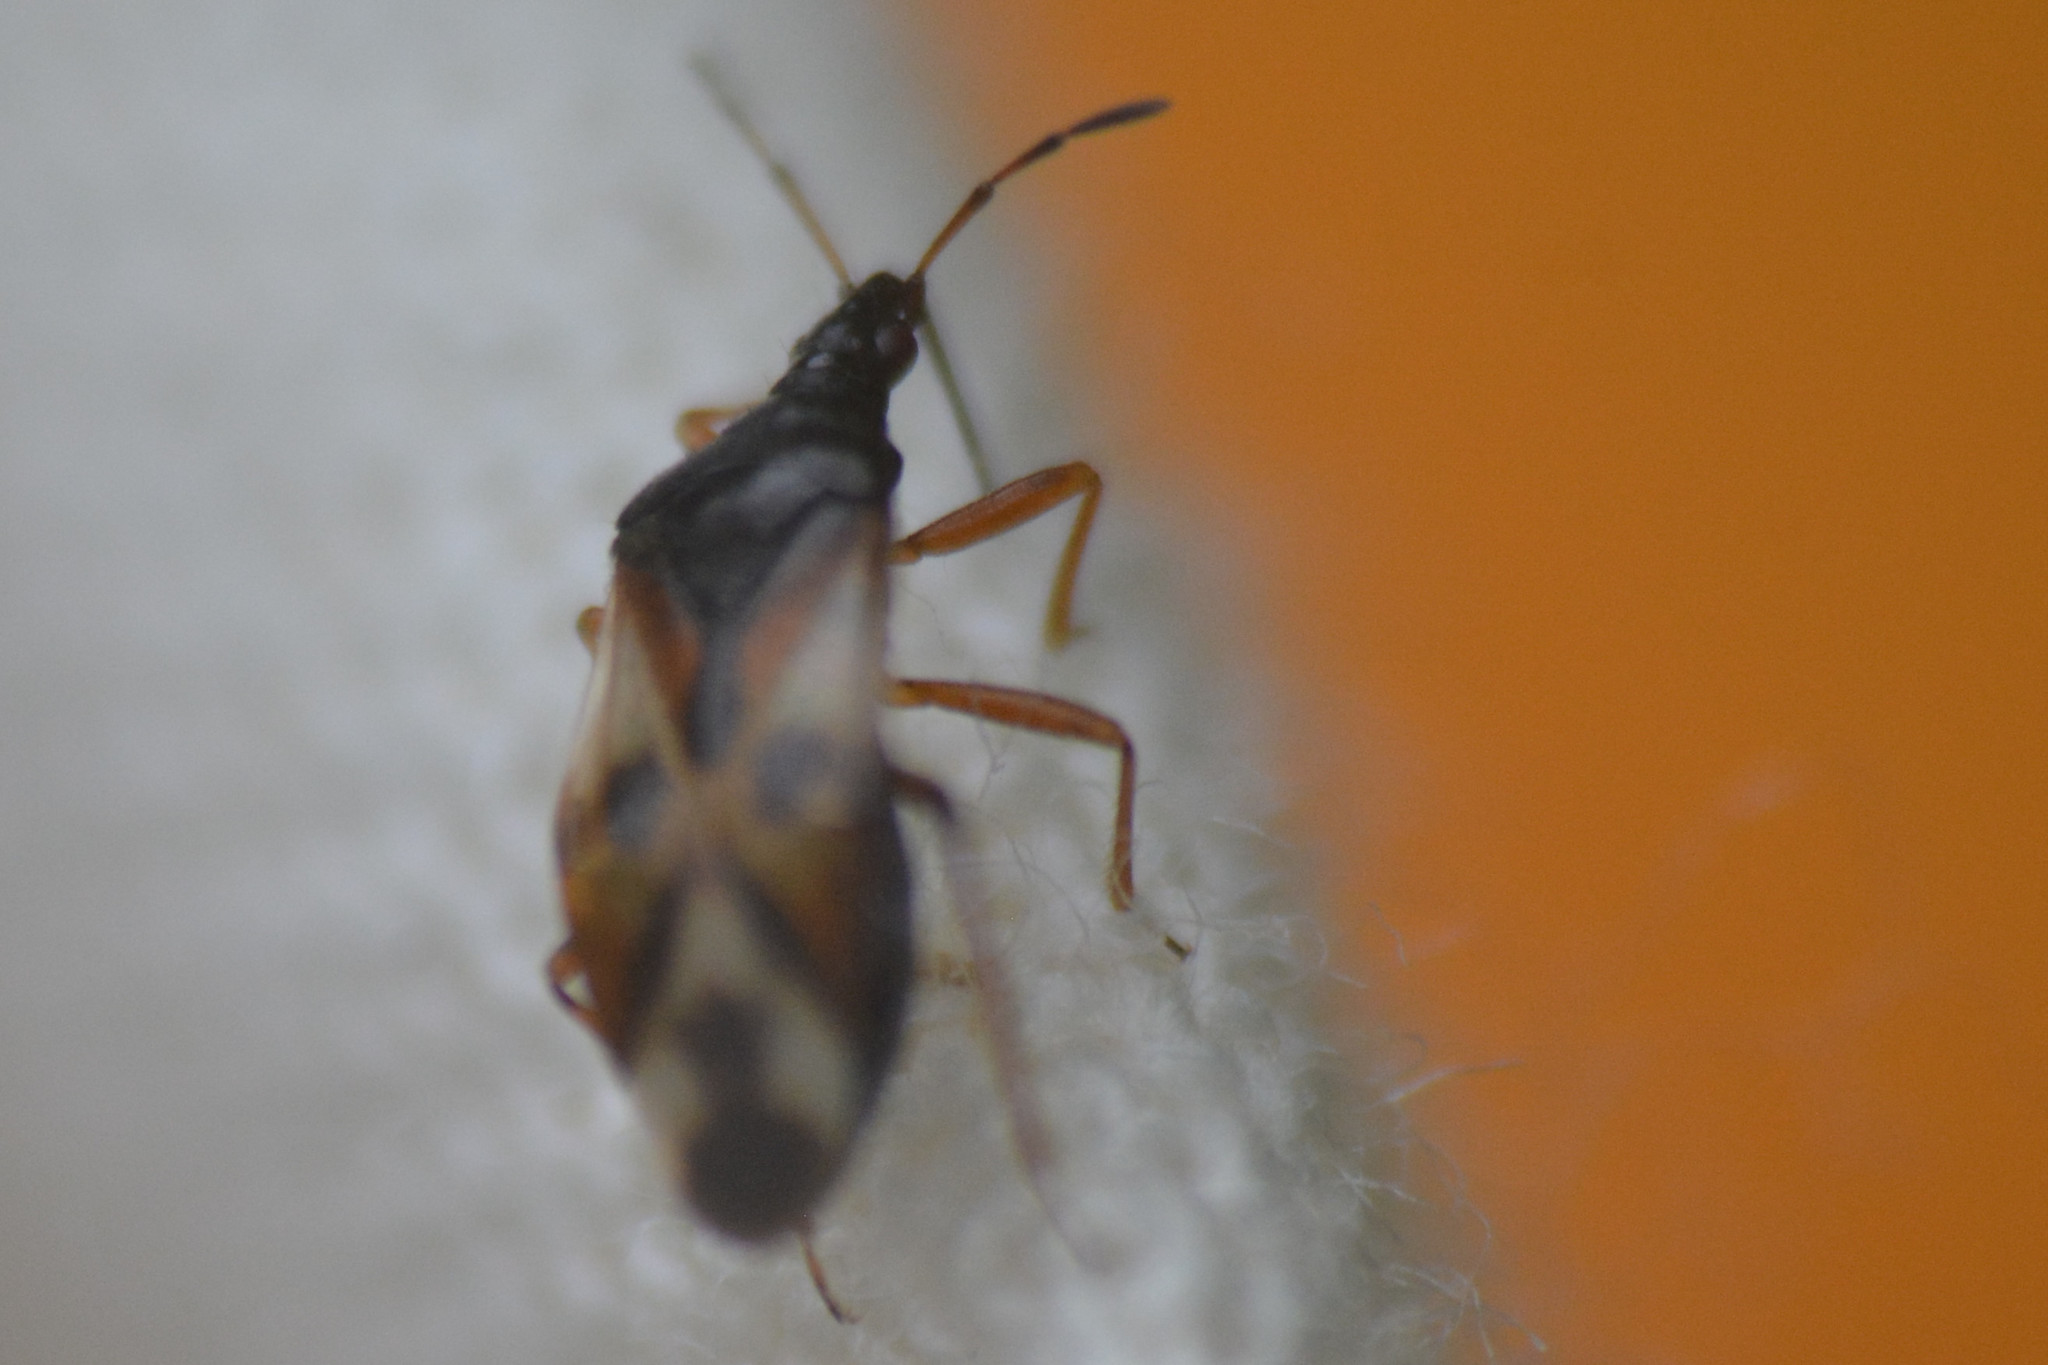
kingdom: Animalia
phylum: Arthropoda
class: Insecta
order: Hemiptera
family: Anthocoridae
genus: Anthocoris
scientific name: Anthocoris nemorum
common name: Minute pirate bug
